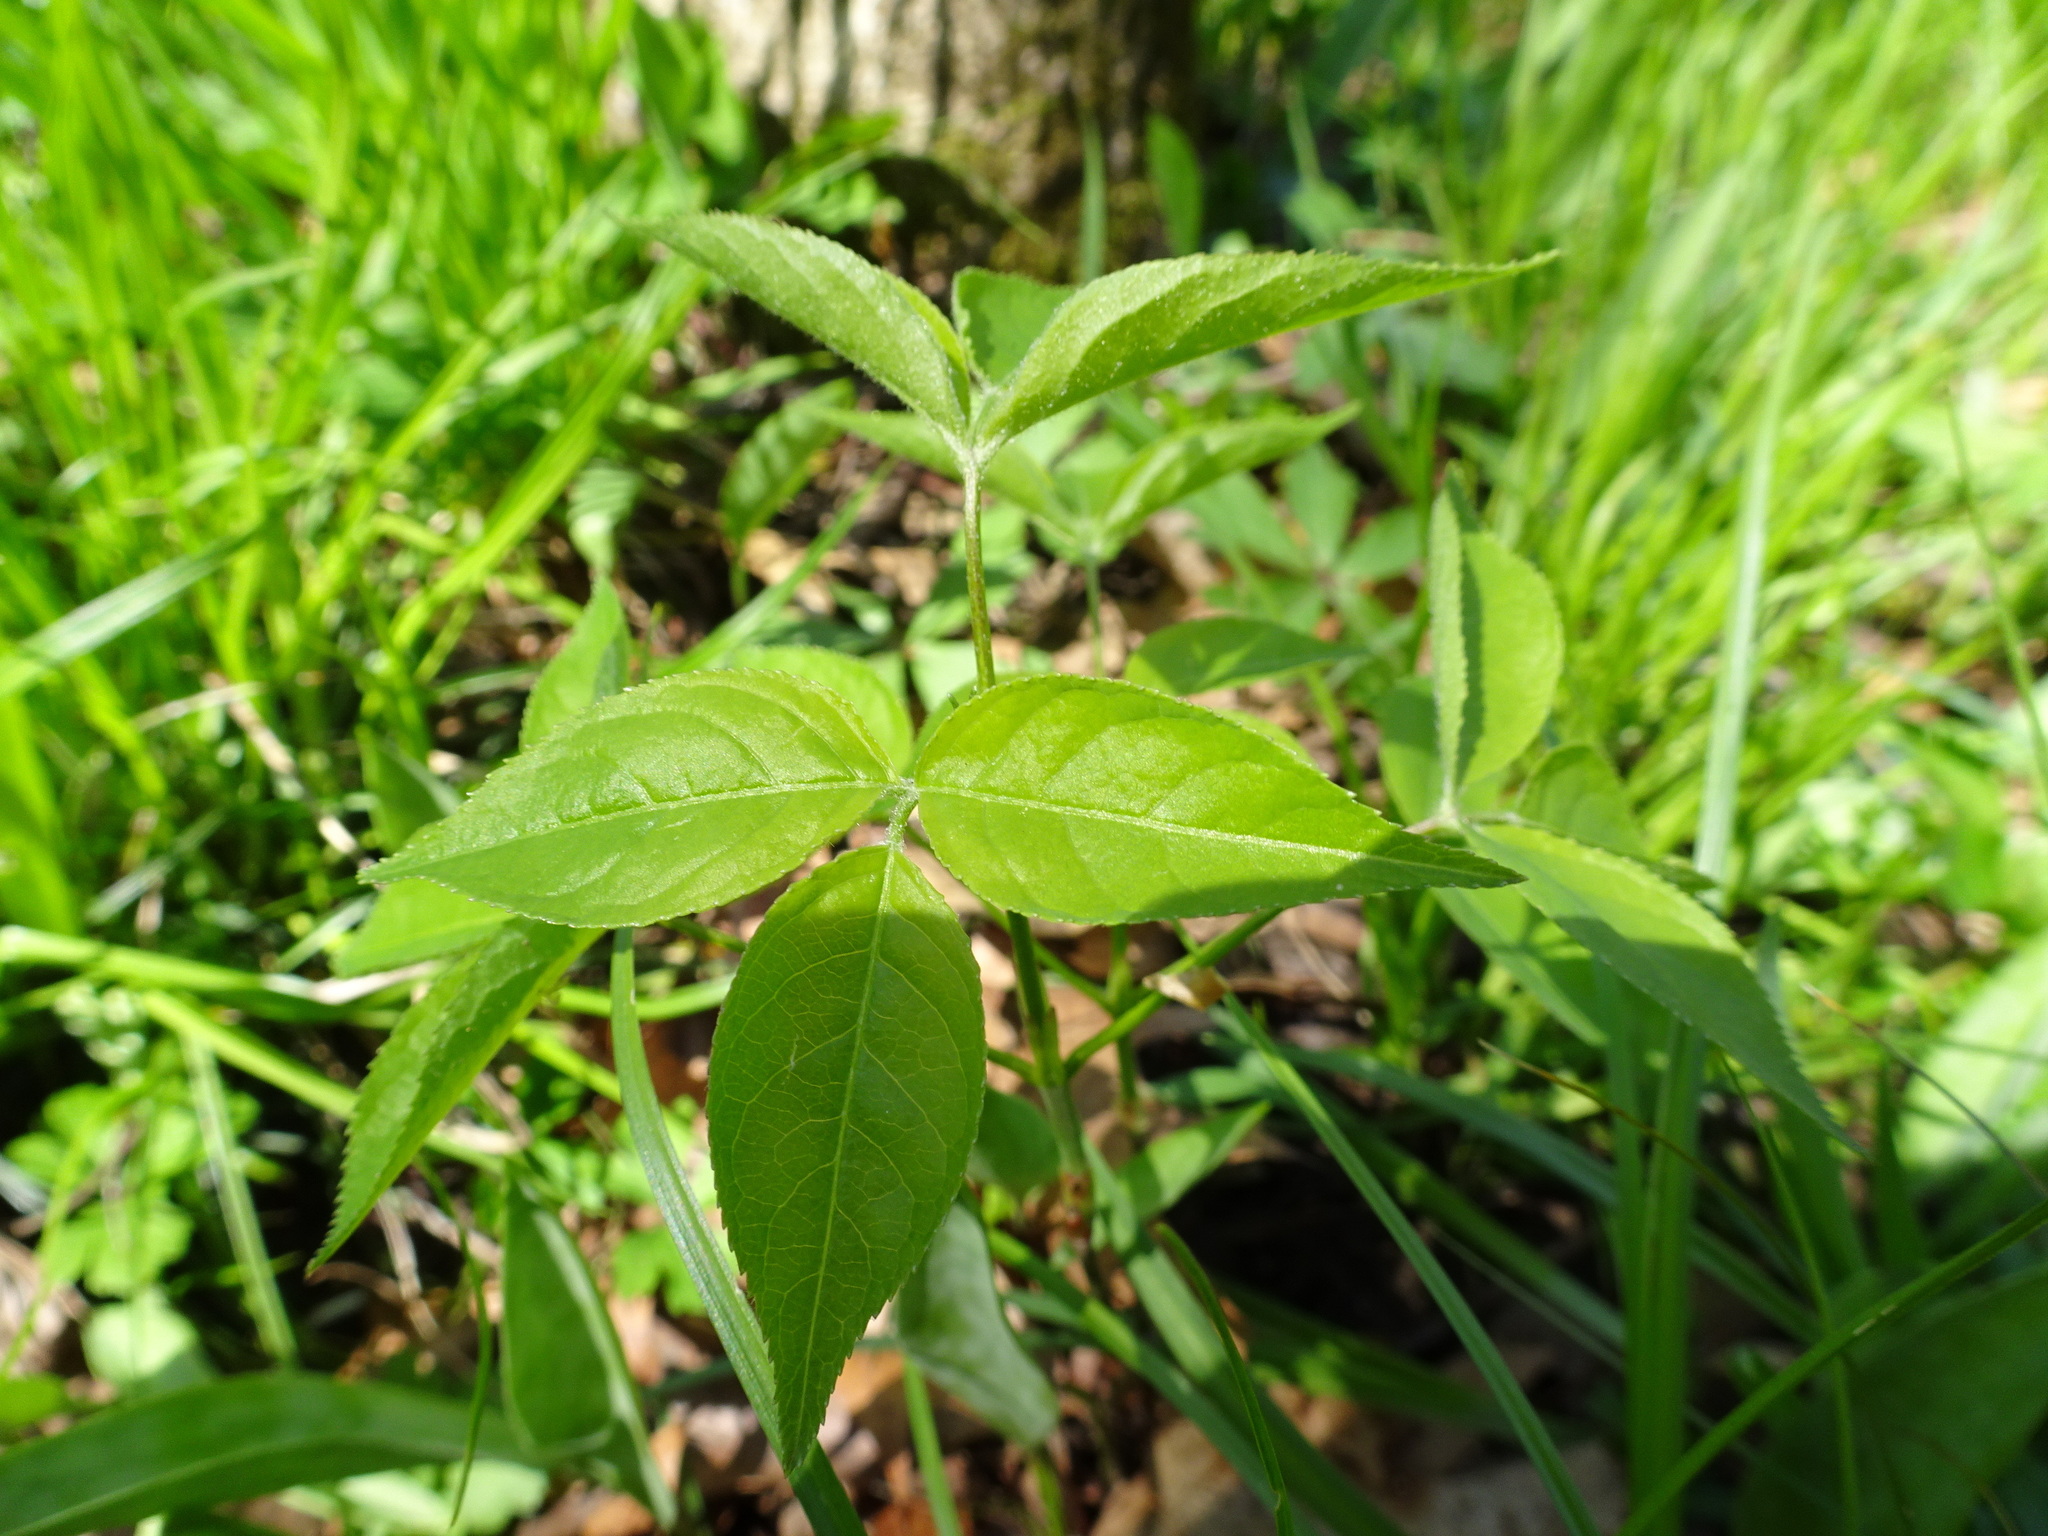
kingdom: Plantae
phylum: Tracheophyta
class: Magnoliopsida
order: Crossosomatales
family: Staphyleaceae
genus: Staphylea
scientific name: Staphylea trifolia
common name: American bladdernut
